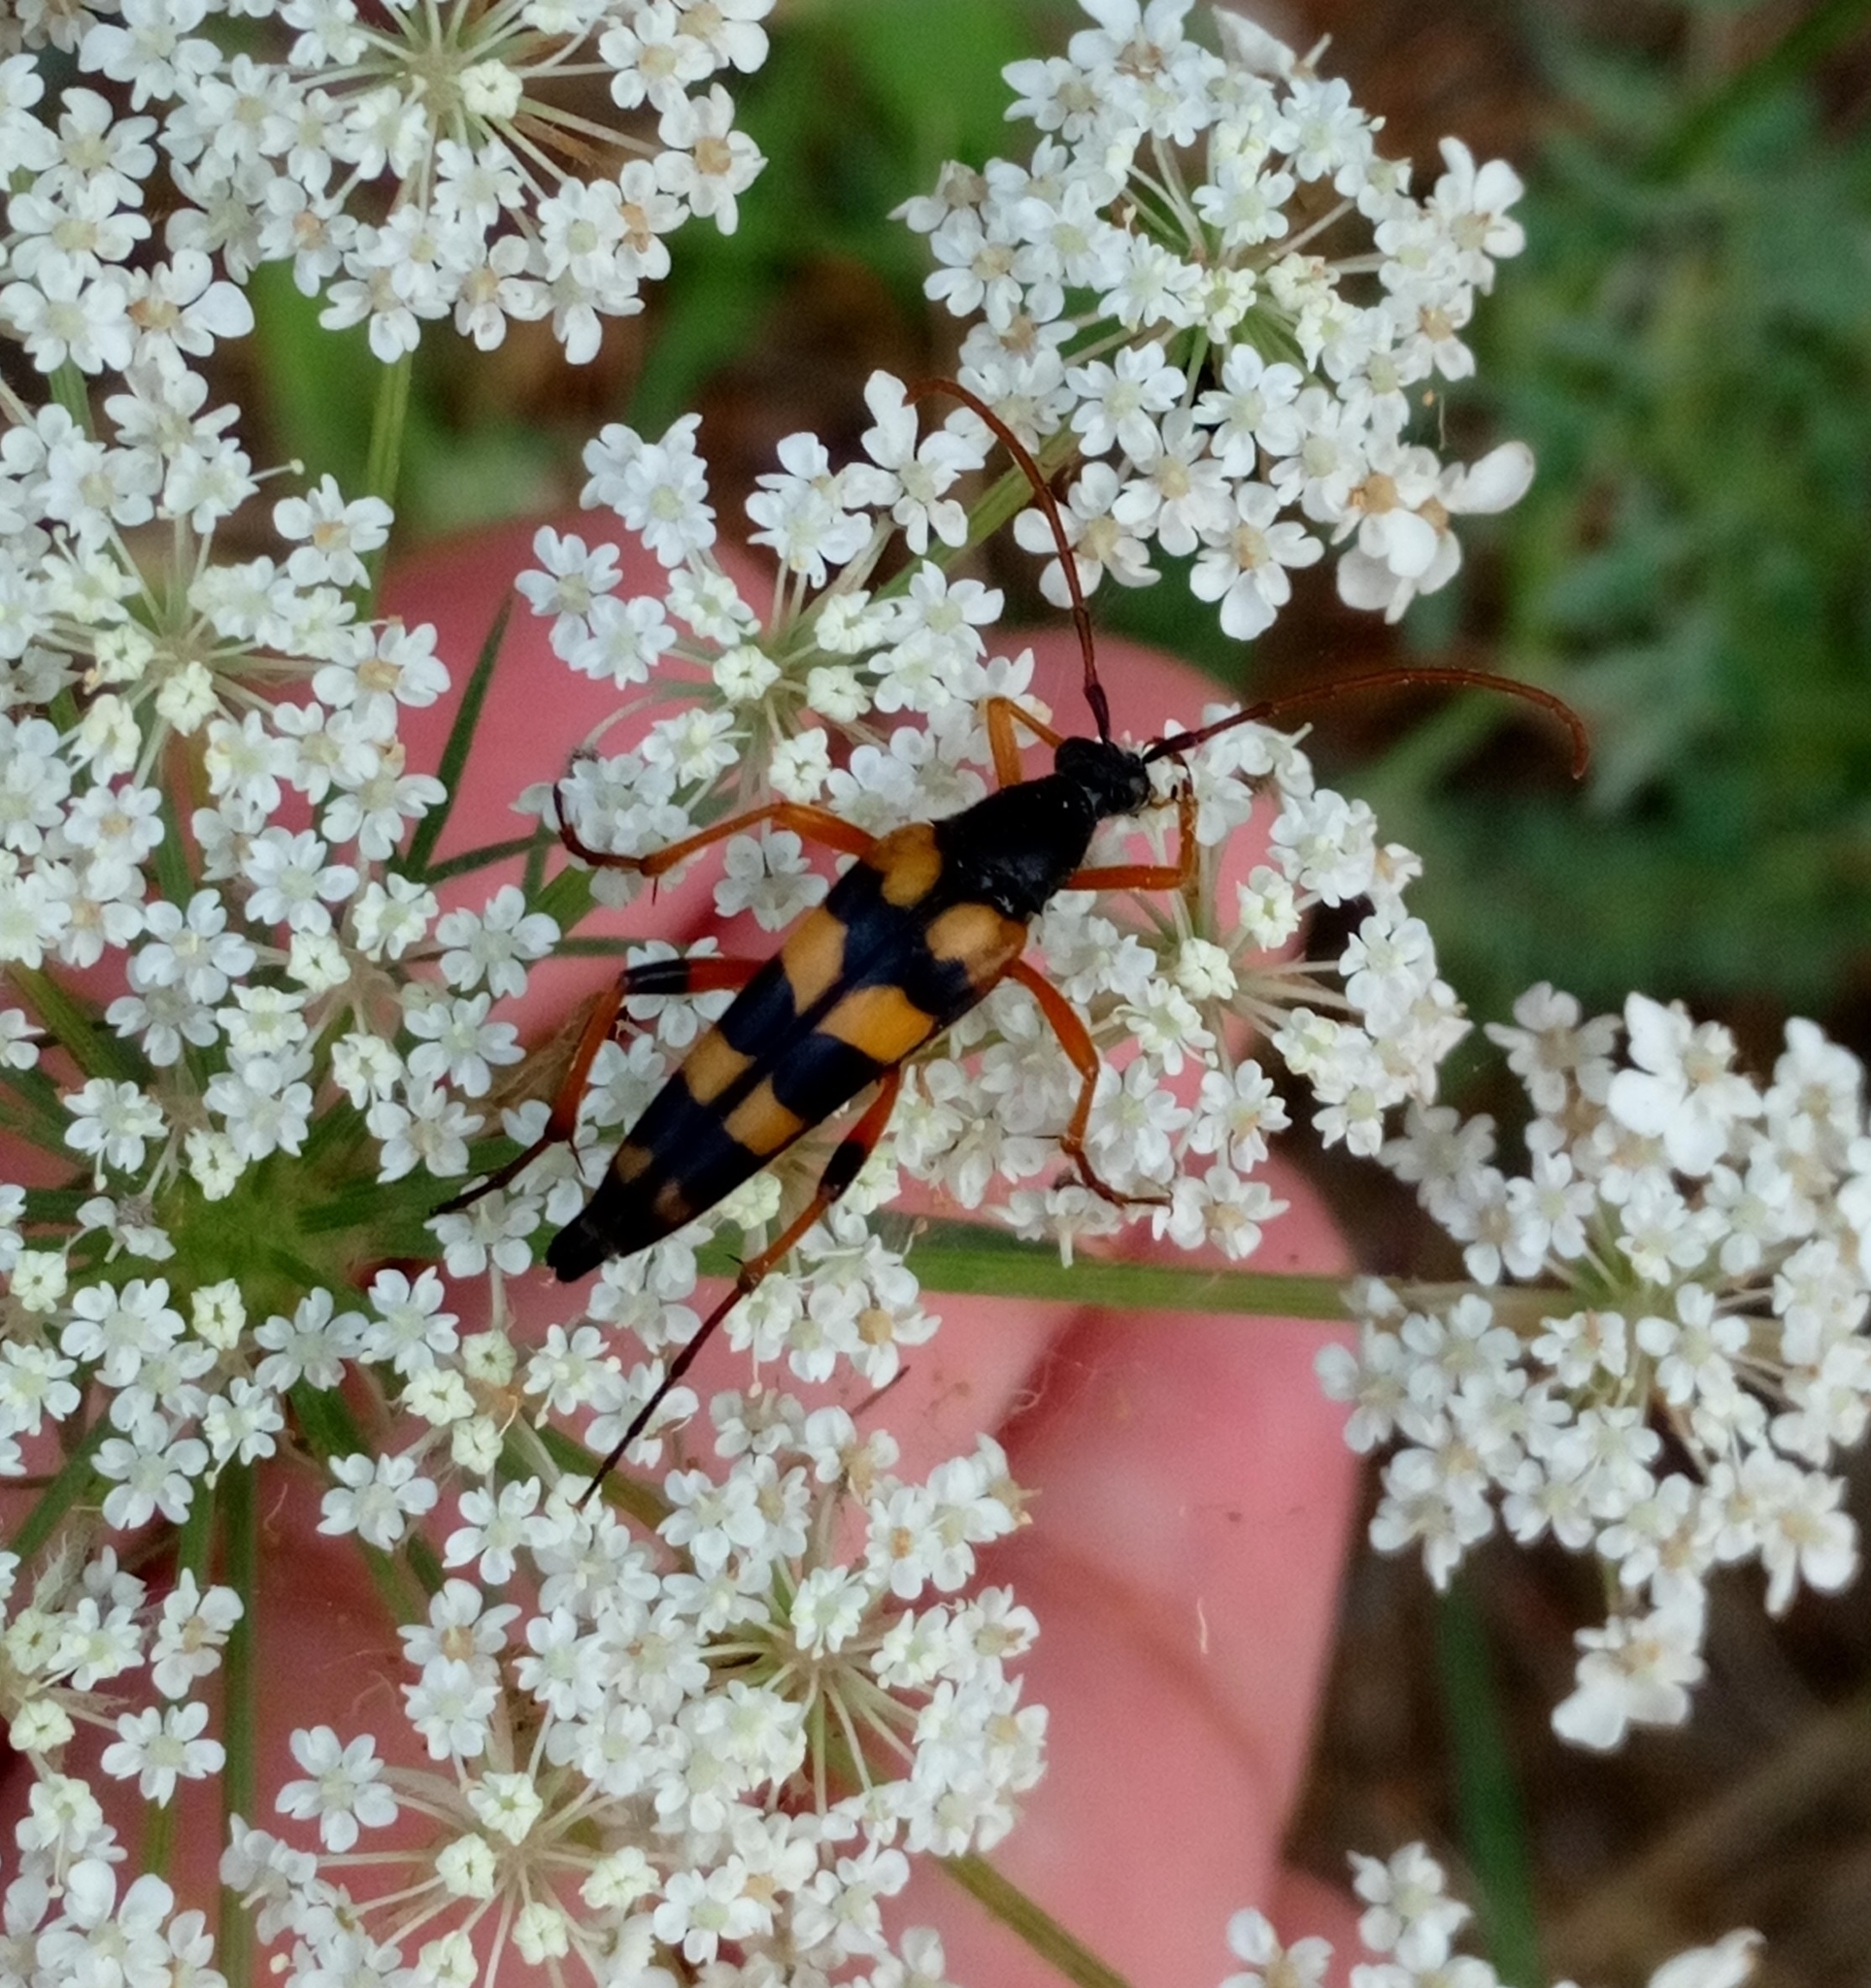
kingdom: Animalia
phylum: Arthropoda
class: Insecta
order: Coleoptera
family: Cerambycidae
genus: Strangalia
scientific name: Strangalia attenuata
